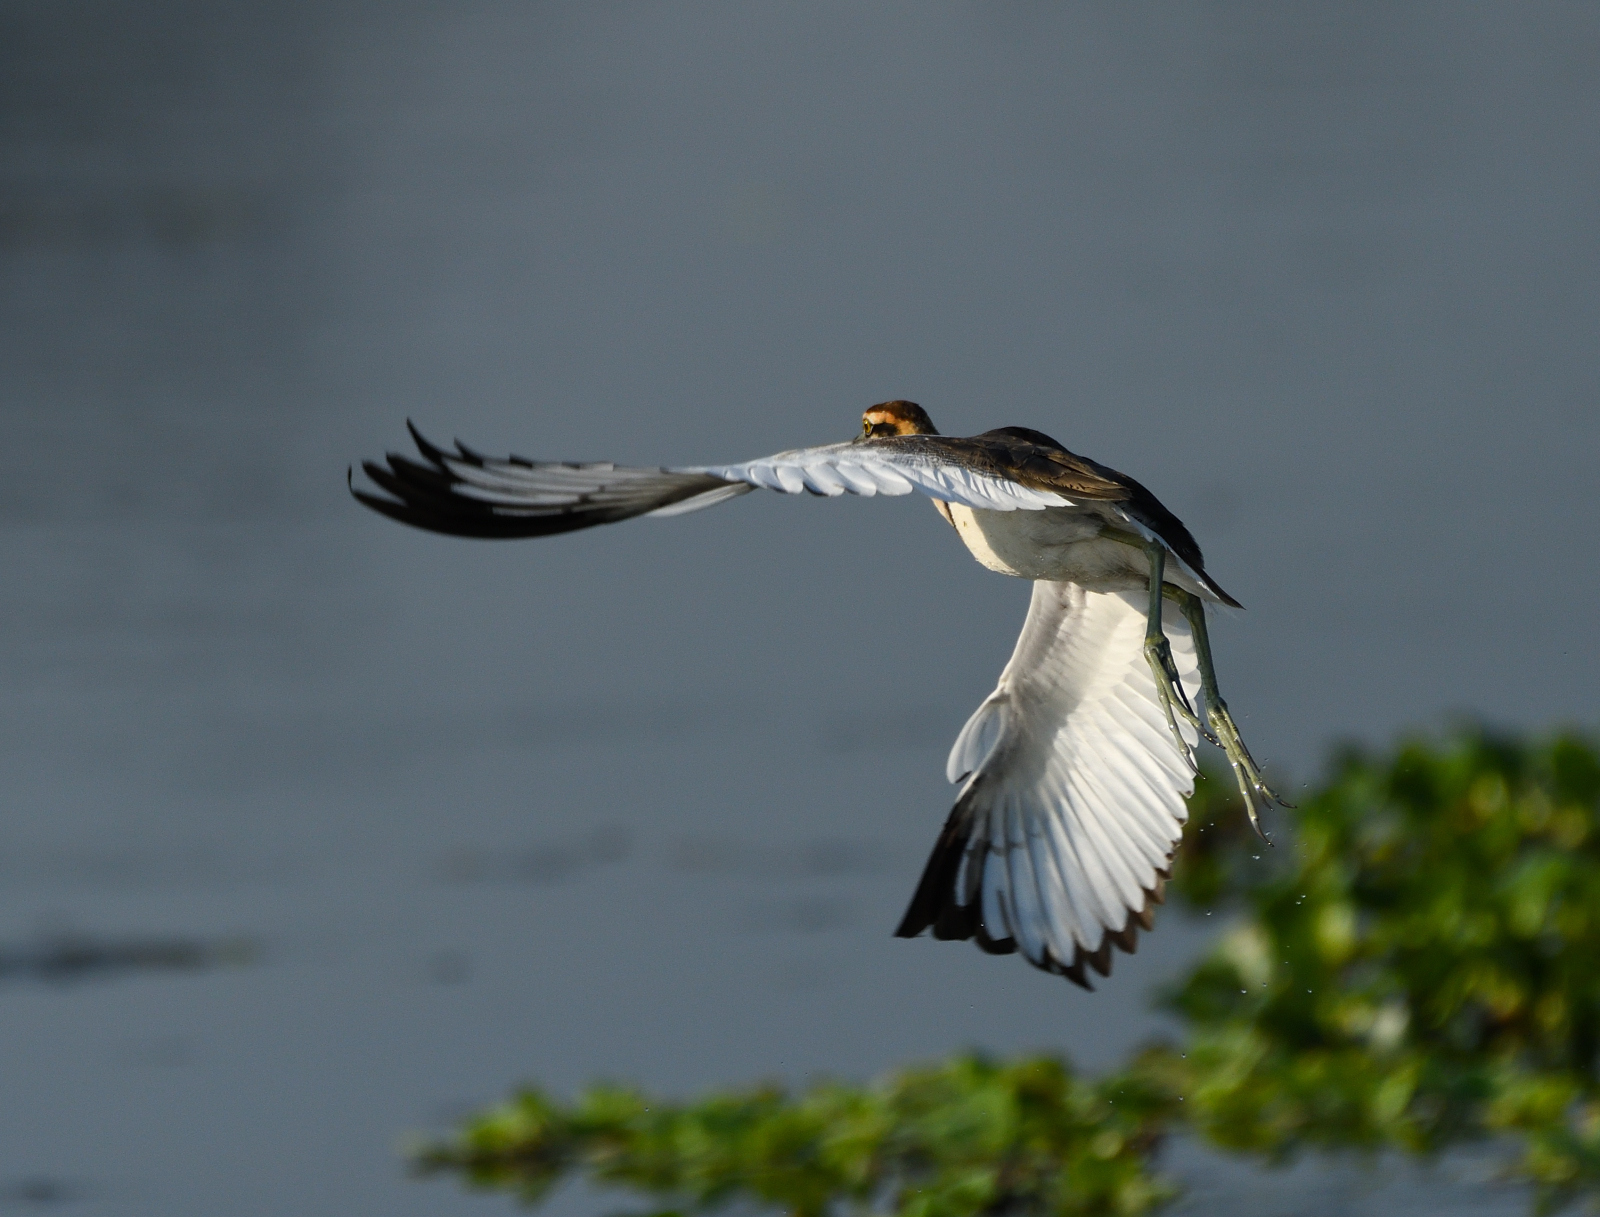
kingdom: Animalia
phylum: Chordata
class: Aves
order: Charadriiformes
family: Jacanidae
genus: Hydrophasianus
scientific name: Hydrophasianus chirurgus
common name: Pheasant-tailed jacana
